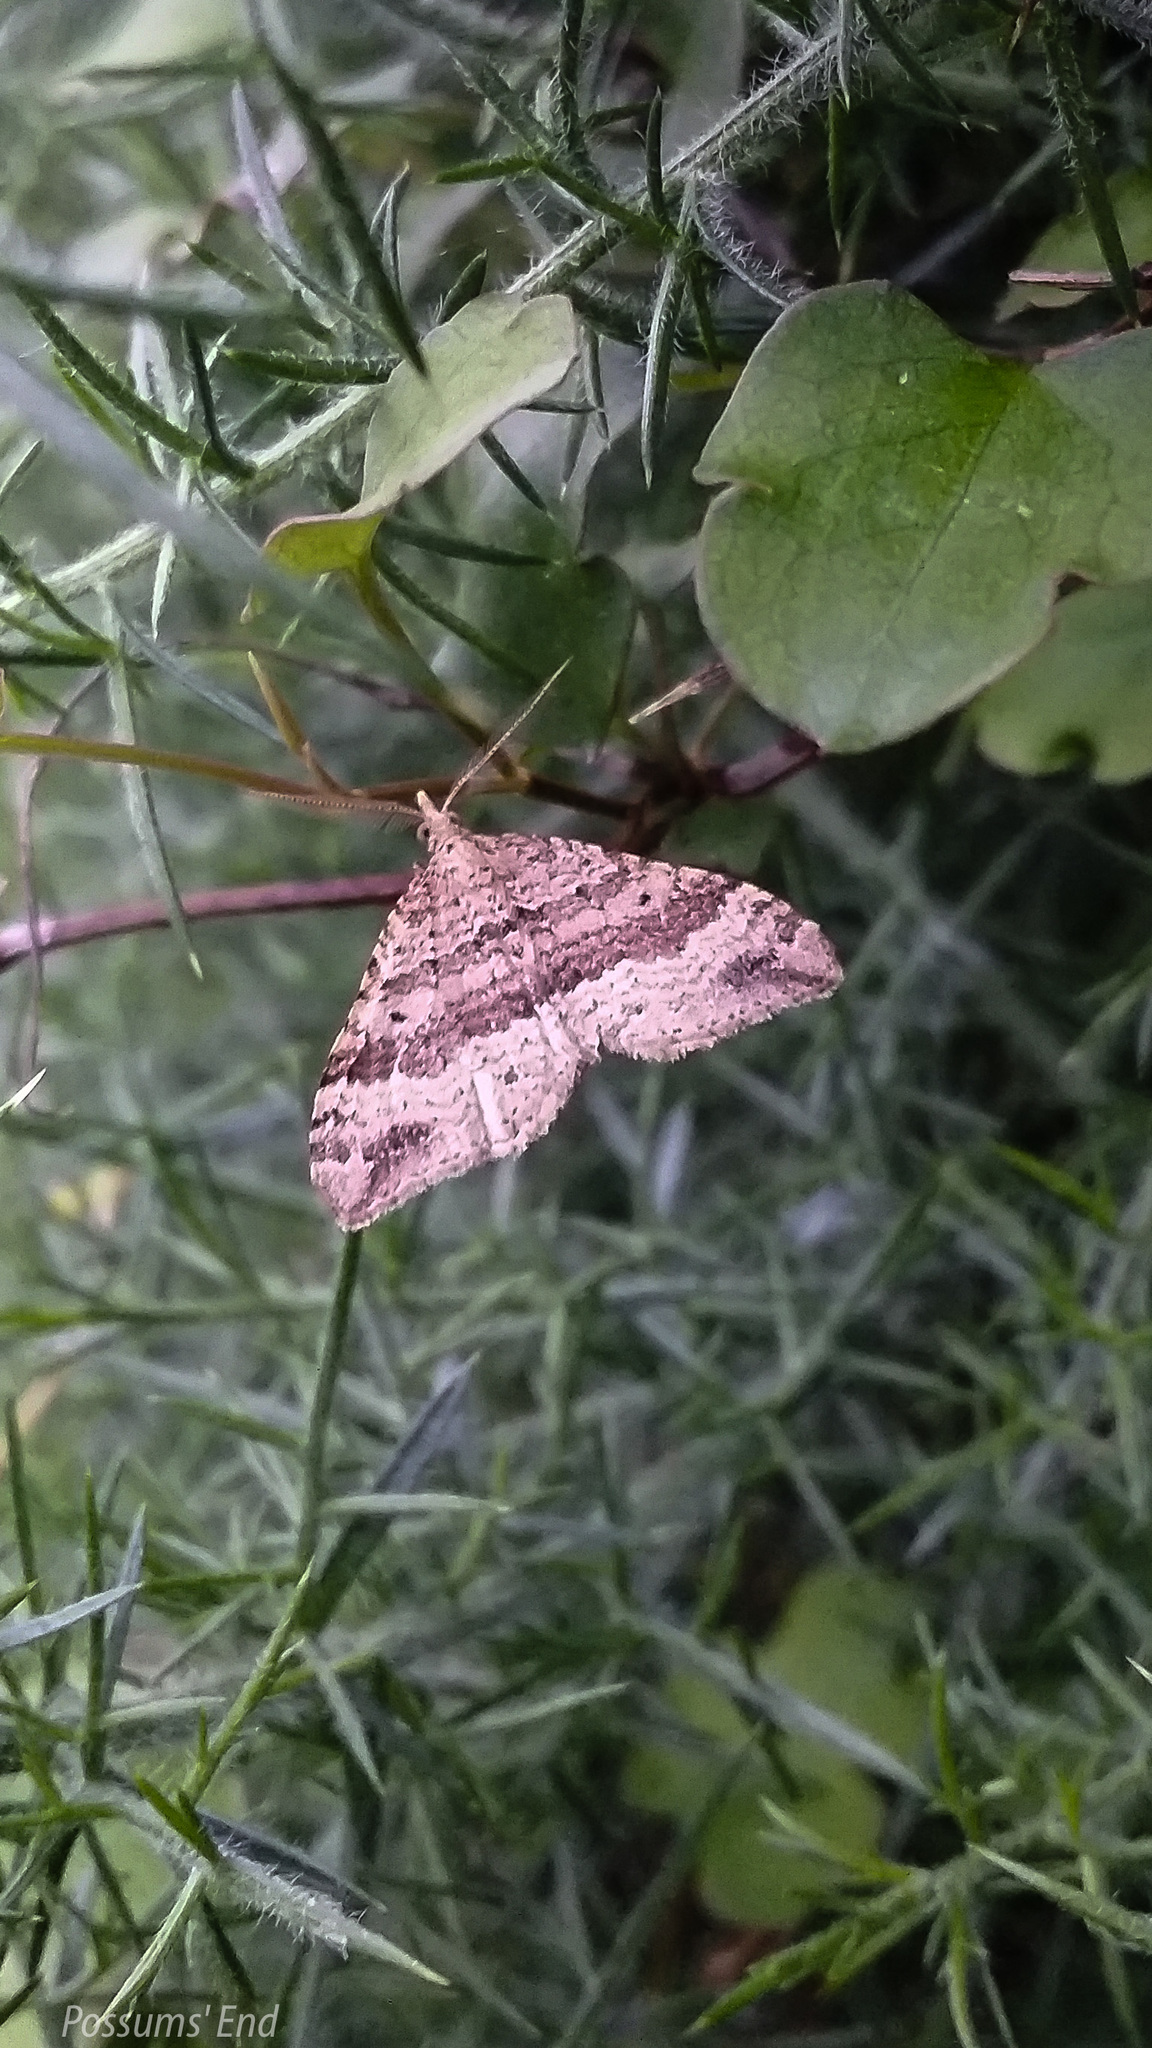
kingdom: Animalia
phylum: Arthropoda
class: Insecta
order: Lepidoptera
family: Geometridae
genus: Homodotis
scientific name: Homodotis falcata
